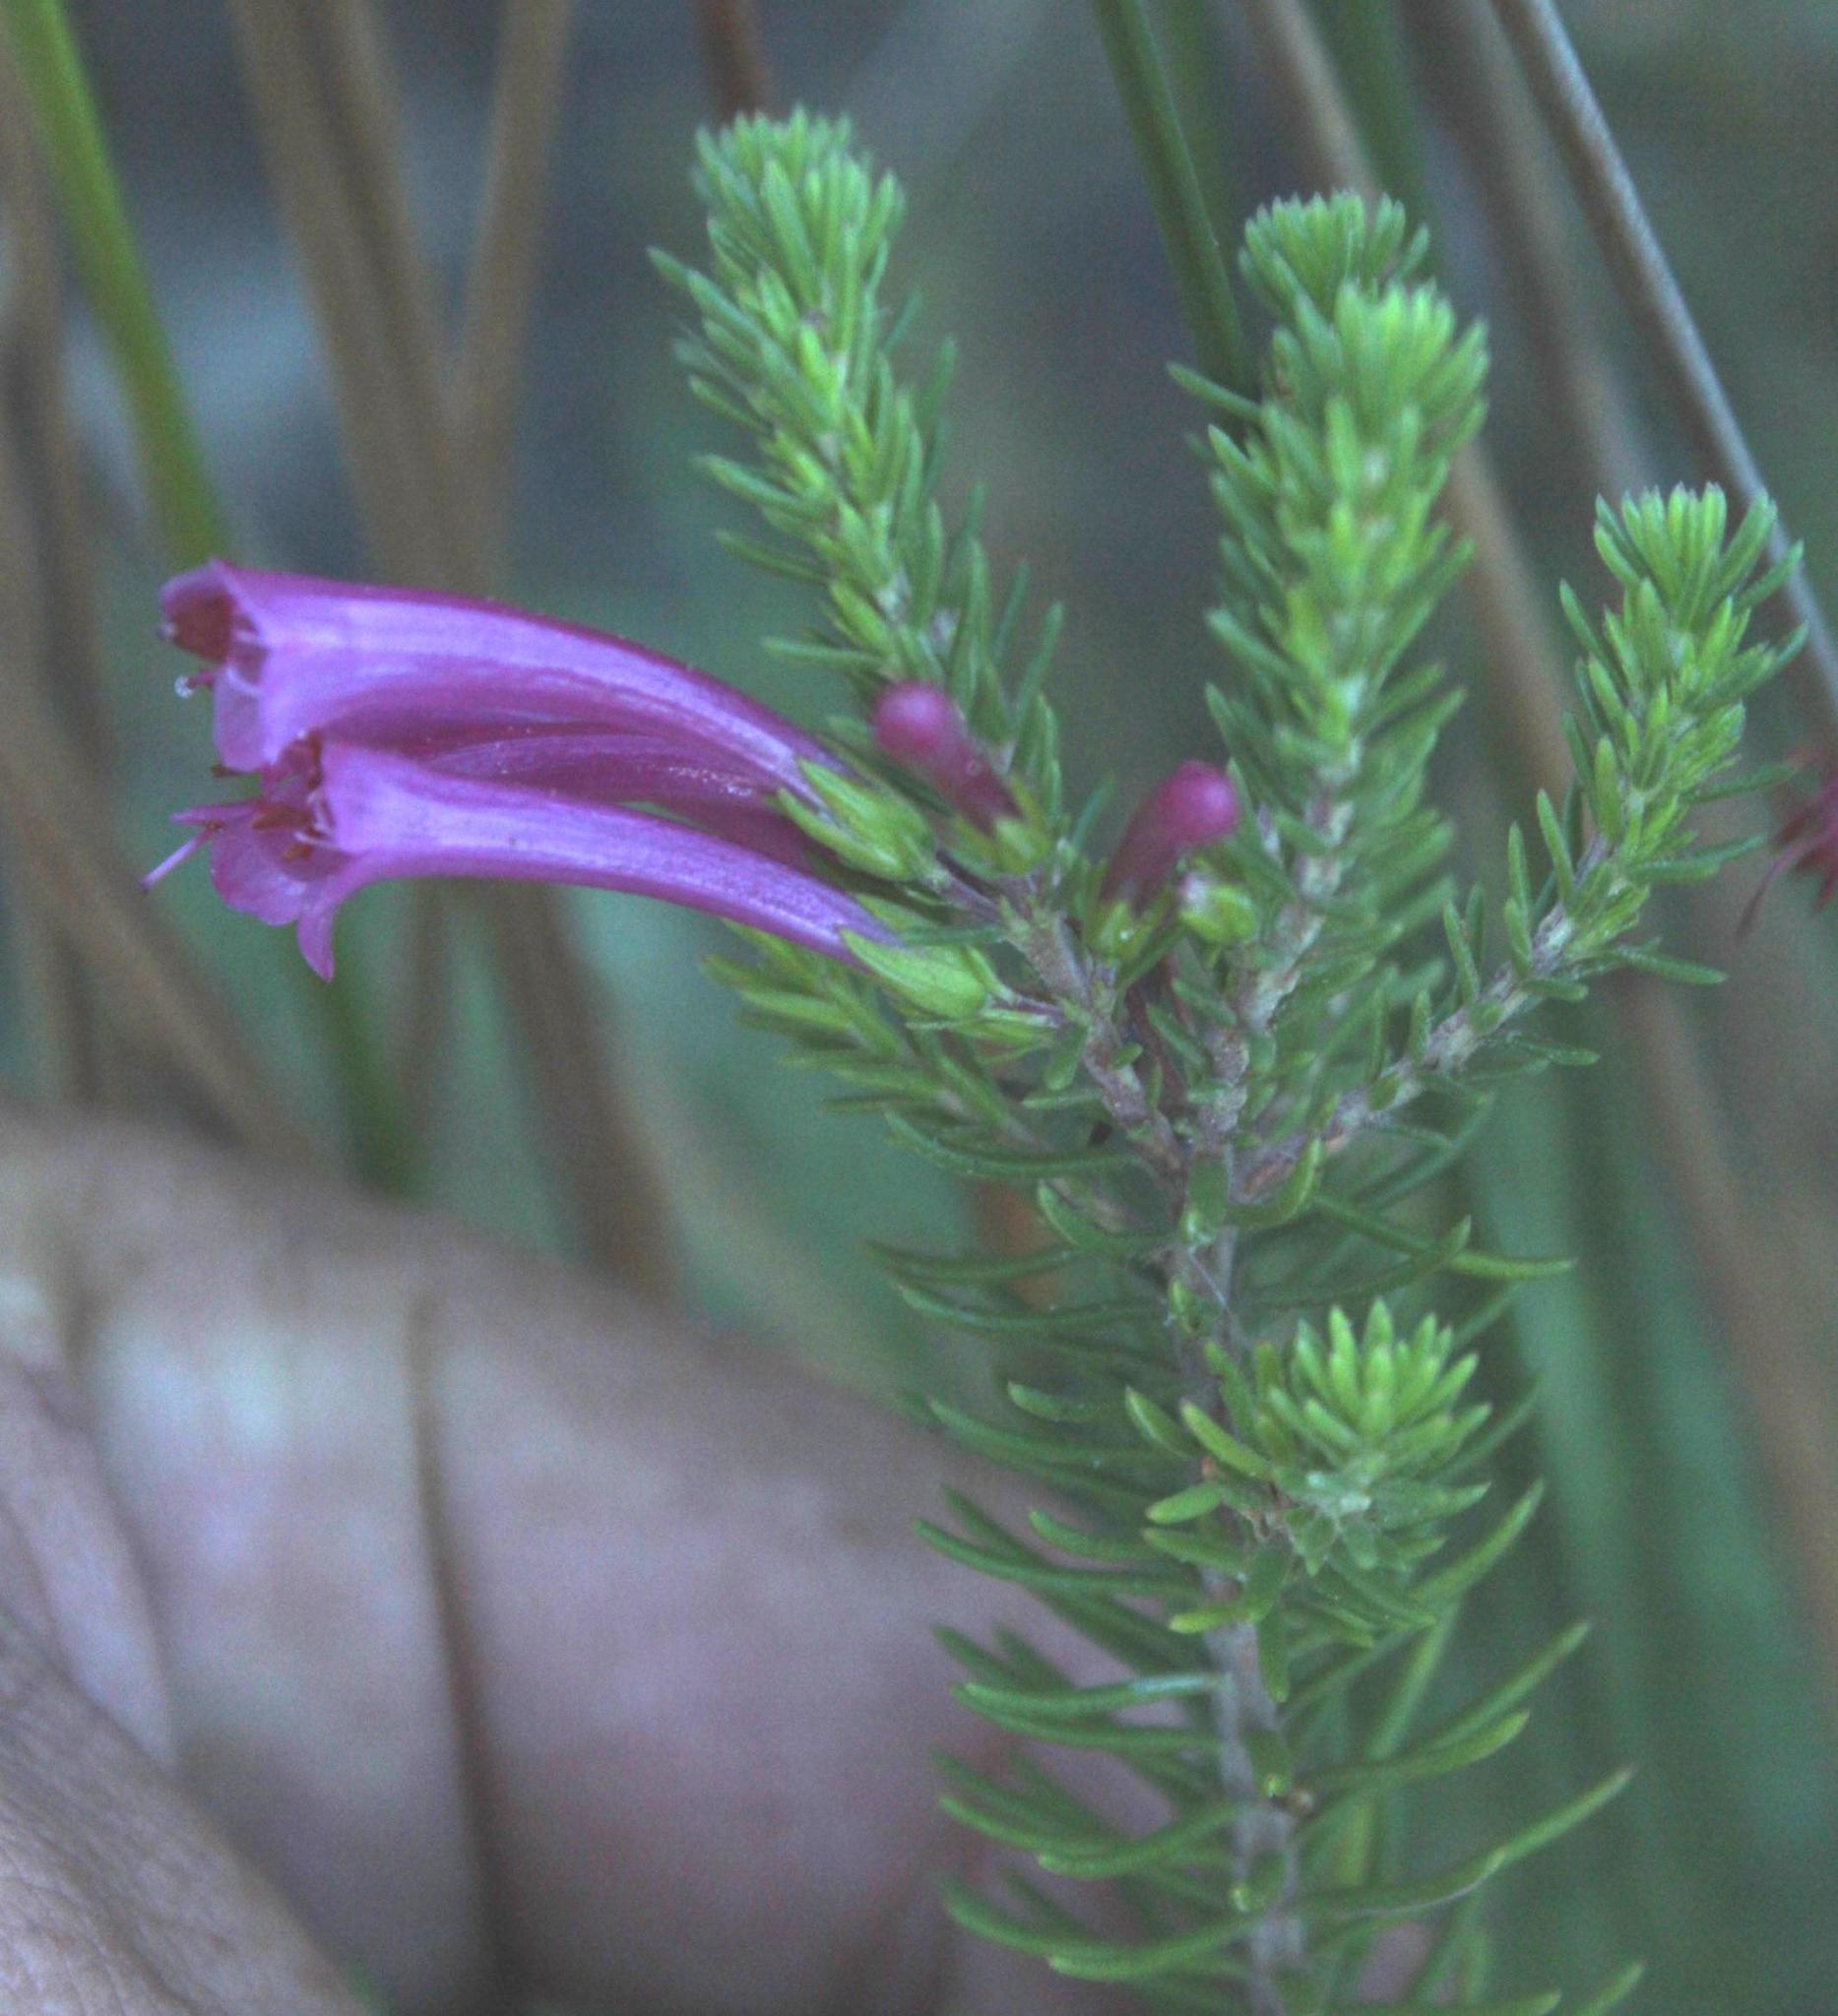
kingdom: Plantae
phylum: Tracheophyta
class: Magnoliopsida
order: Ericales
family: Ericaceae
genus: Erica
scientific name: Erica abietina
